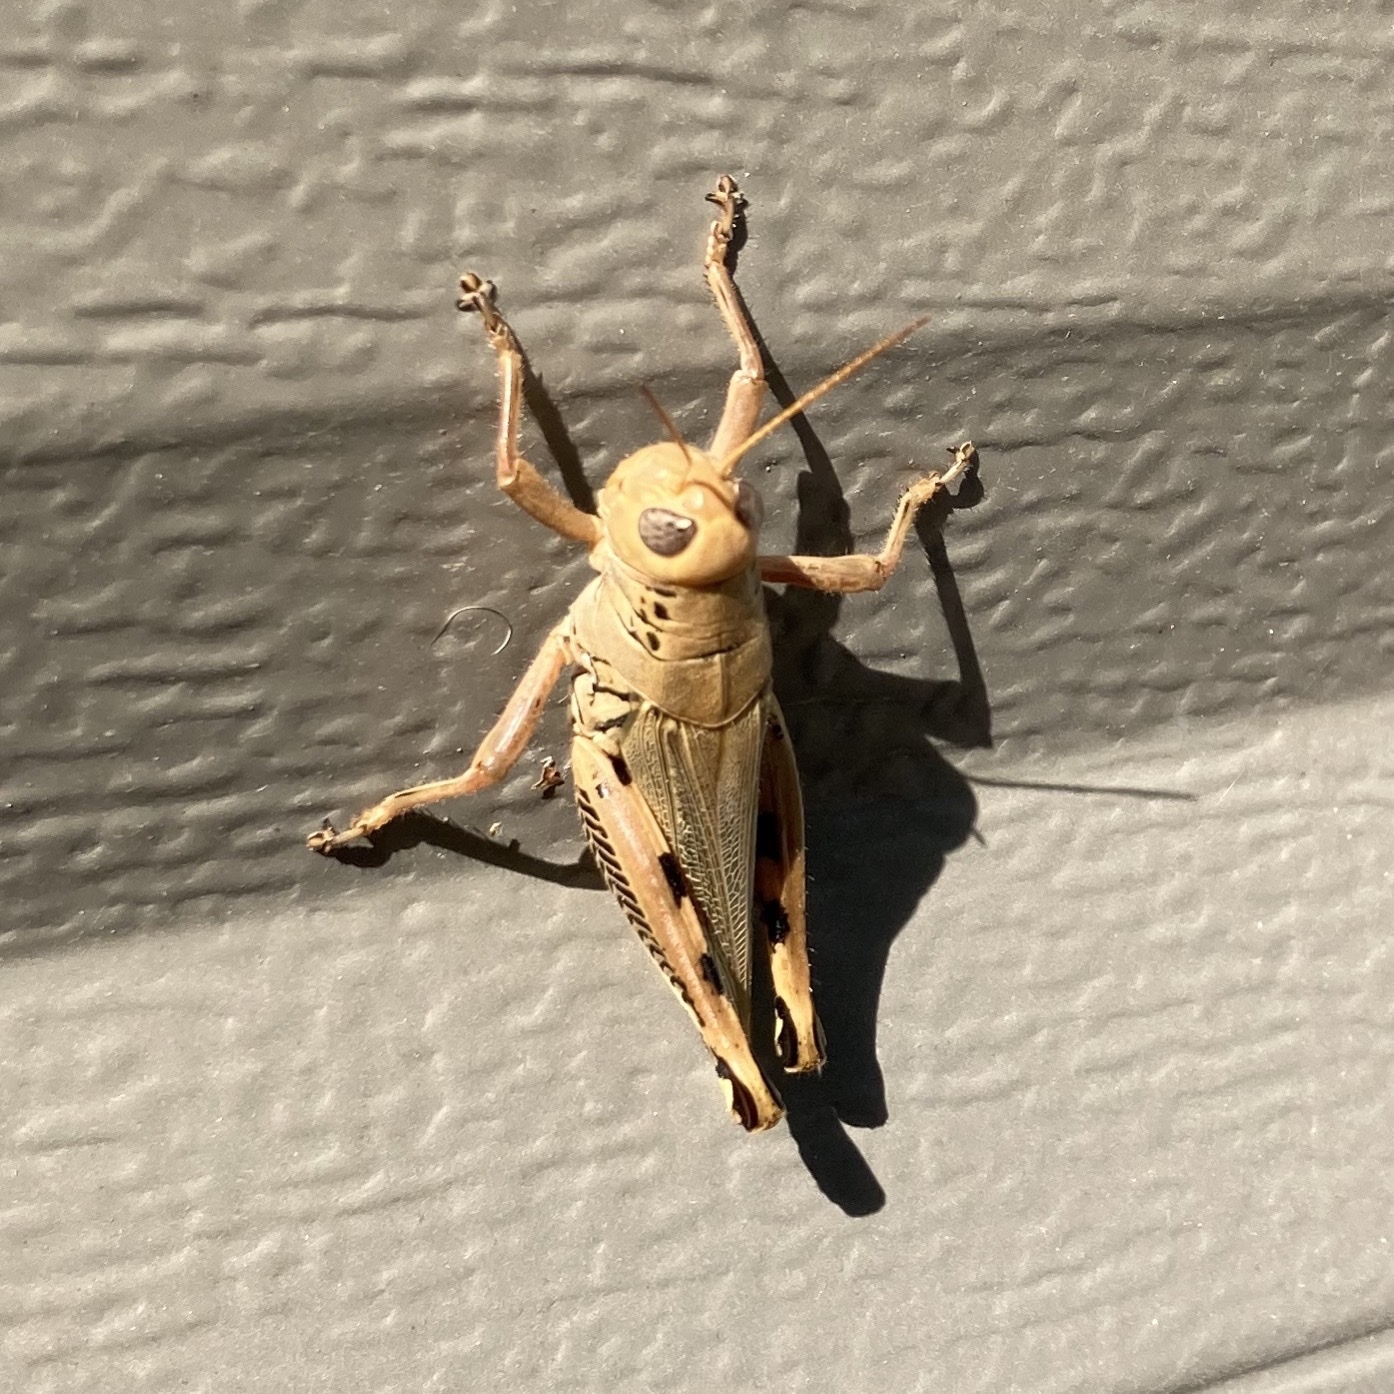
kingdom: Animalia
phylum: Arthropoda
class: Insecta
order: Orthoptera
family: Acrididae
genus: Melanoplus
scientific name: Melanoplus differentialis
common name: Differential grasshopper
